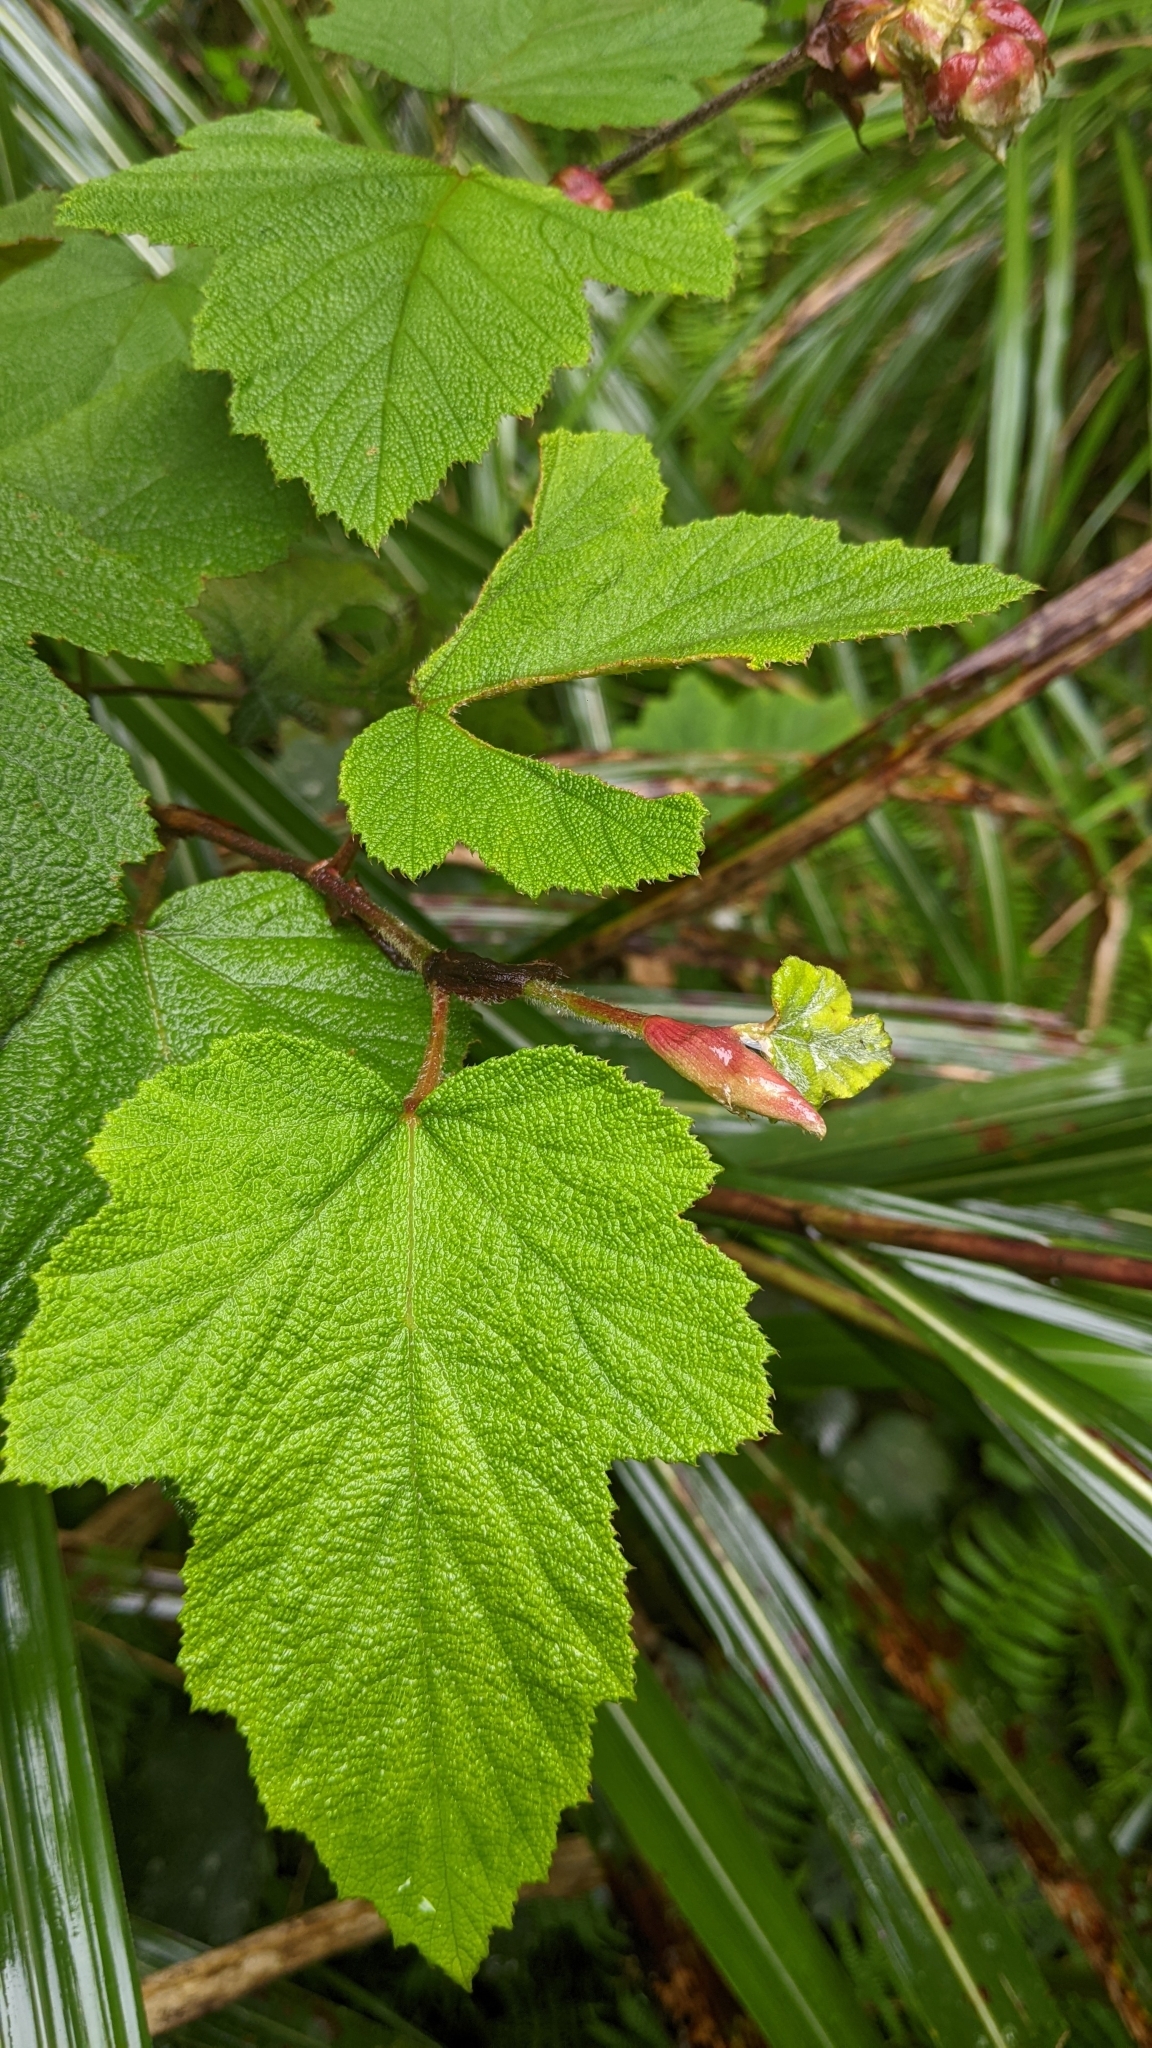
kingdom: Plantae
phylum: Tracheophyta
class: Magnoliopsida
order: Rosales
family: Rosaceae
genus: Rubus
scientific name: Rubus formosensis
